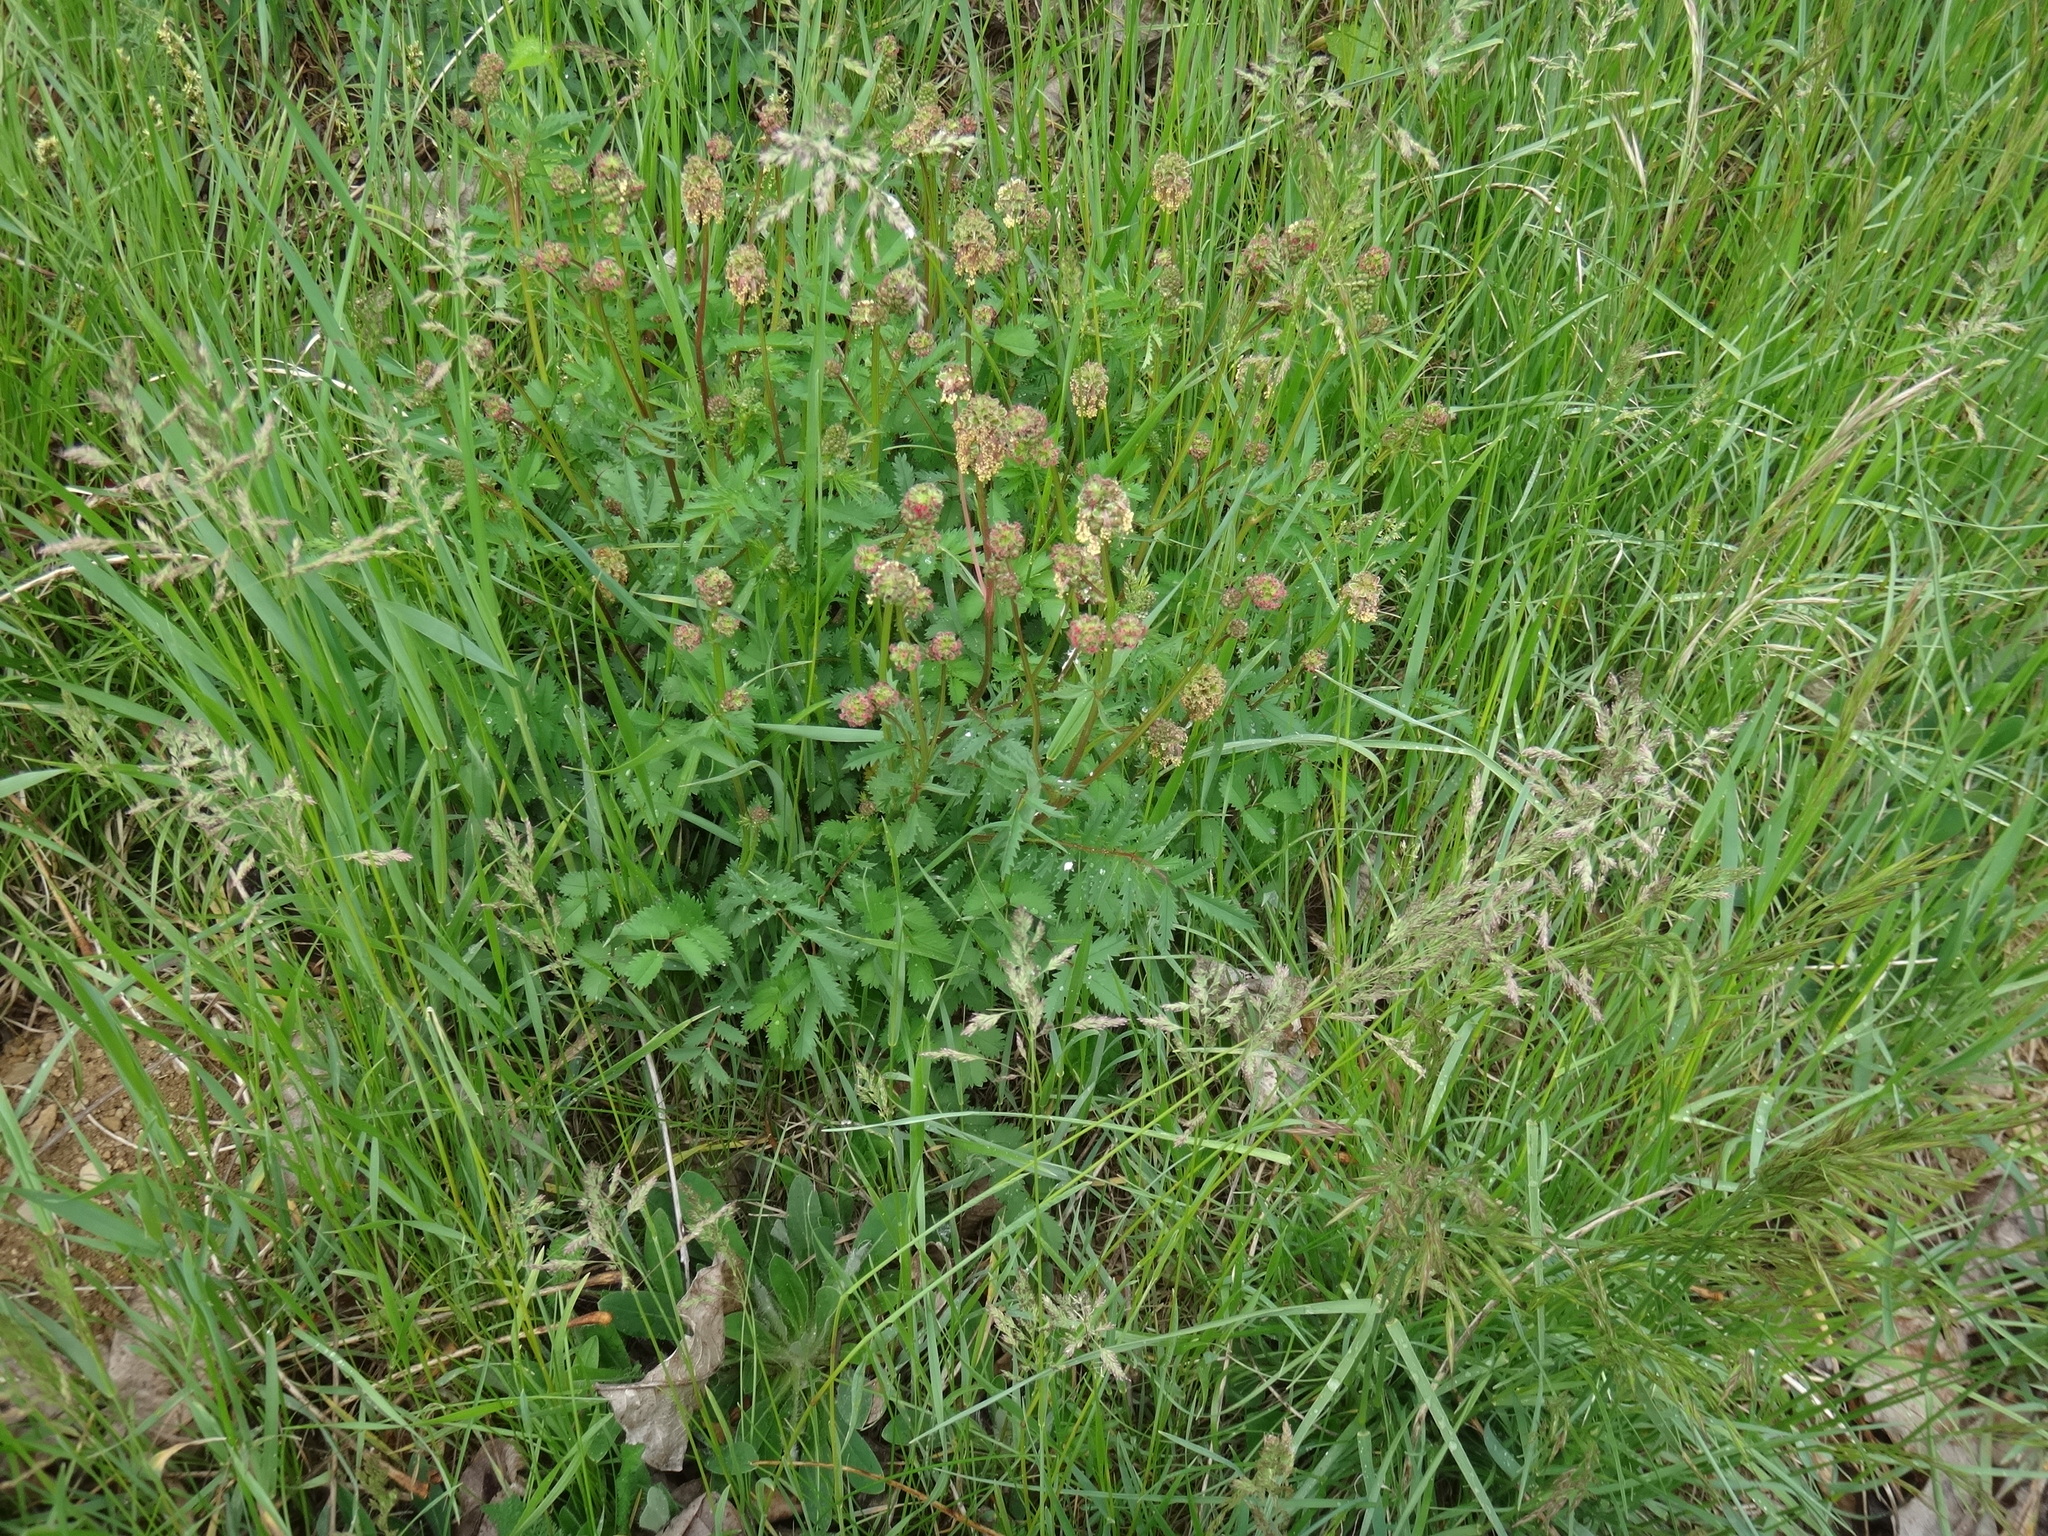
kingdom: Plantae
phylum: Tracheophyta
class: Magnoliopsida
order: Rosales
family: Rosaceae
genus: Poterium
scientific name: Poterium sanguisorba
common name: Salad burnet
